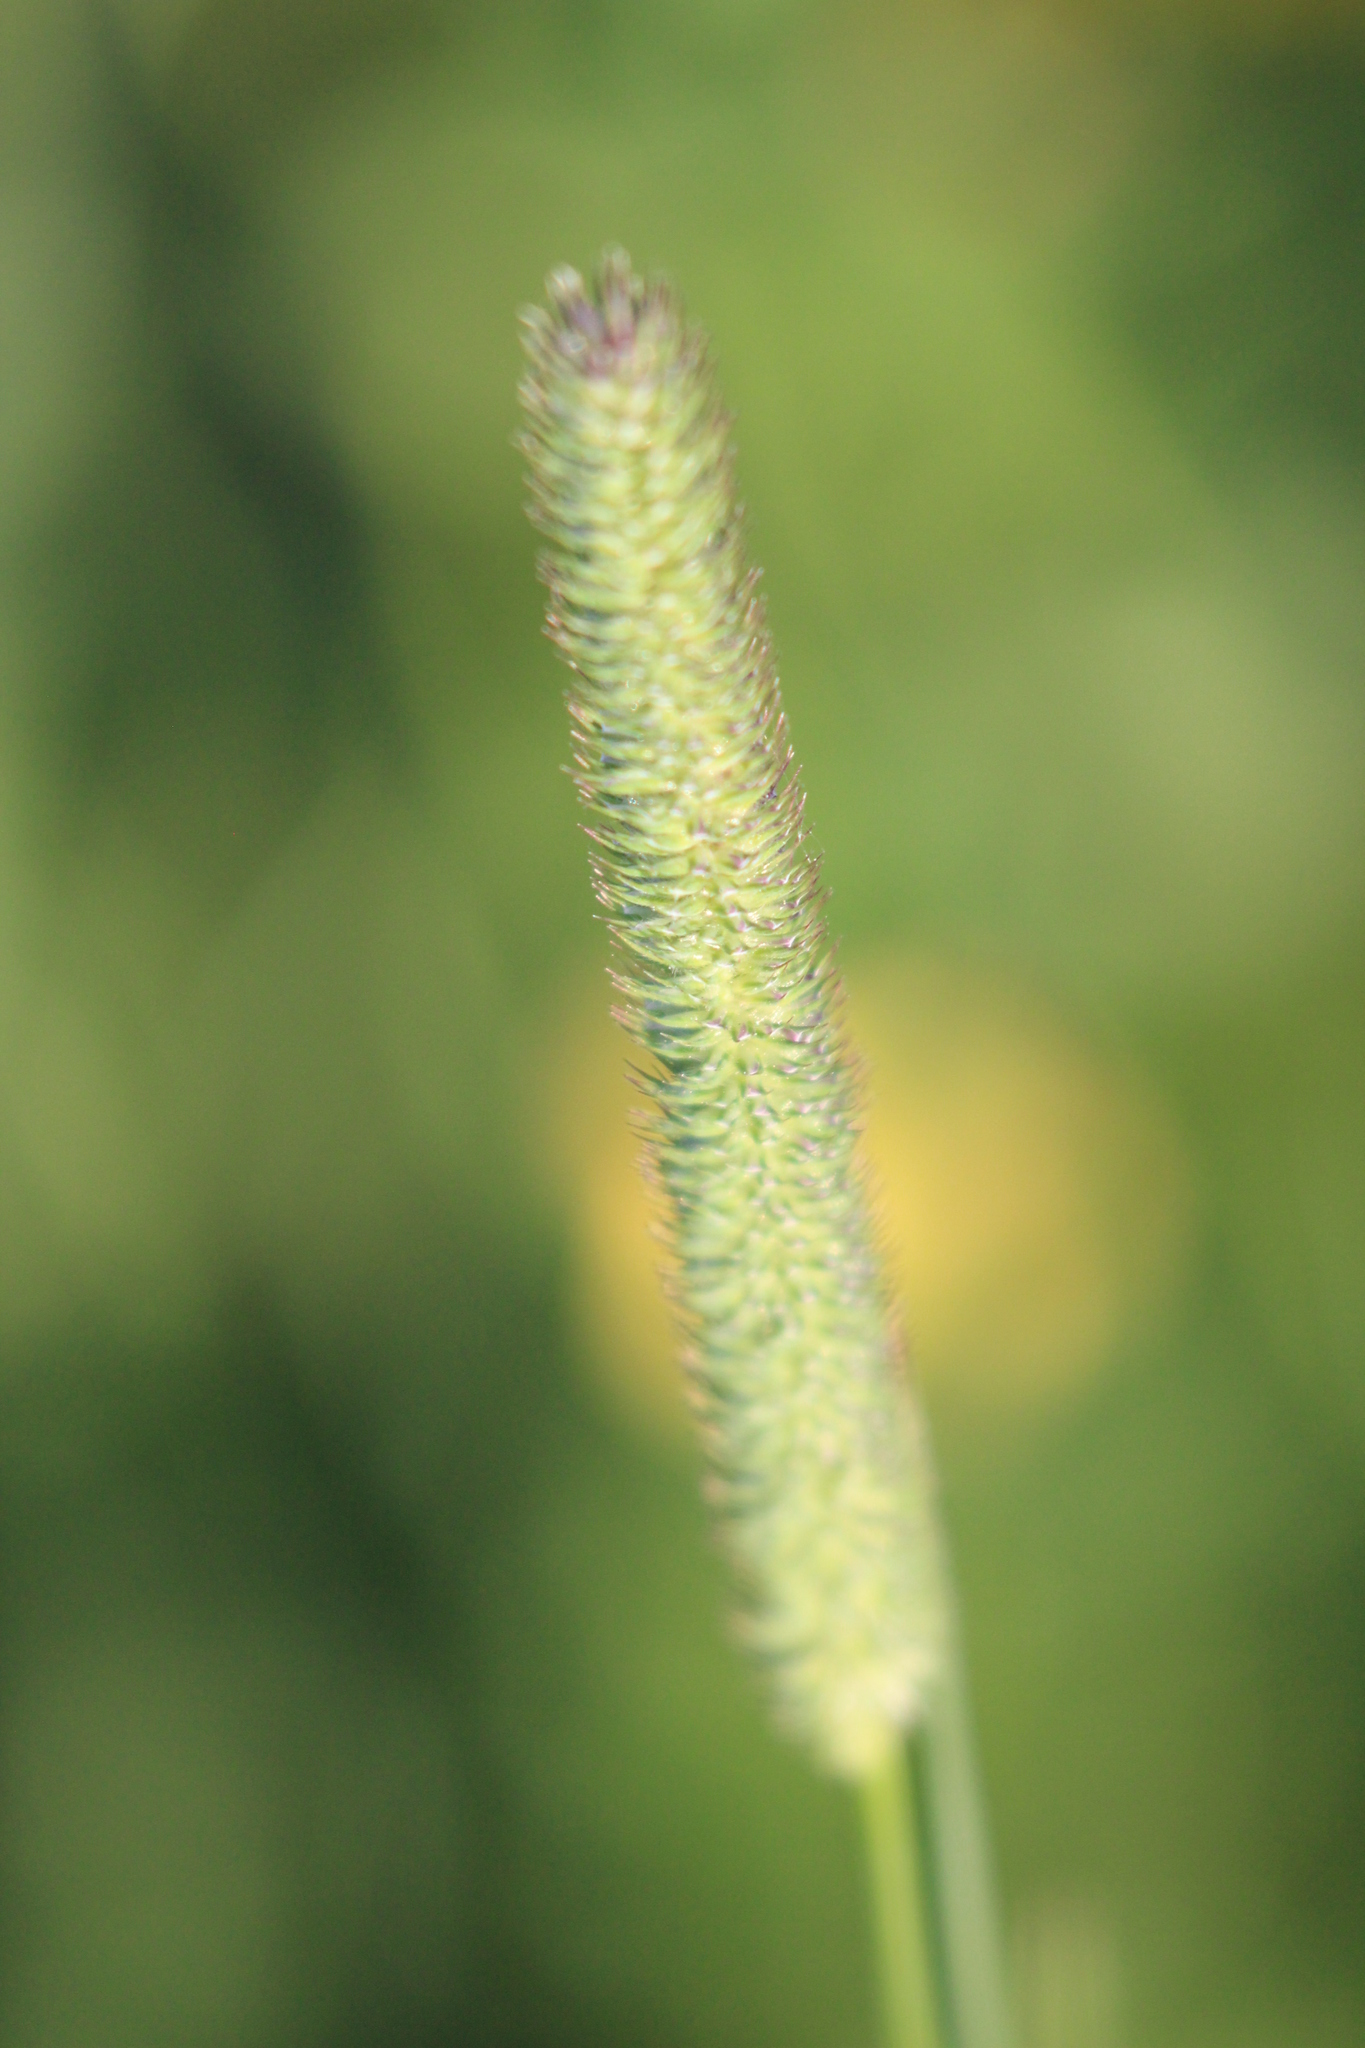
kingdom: Plantae
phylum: Tracheophyta
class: Liliopsida
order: Poales
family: Poaceae
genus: Phleum
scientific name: Phleum pratense
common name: Timothy grass
